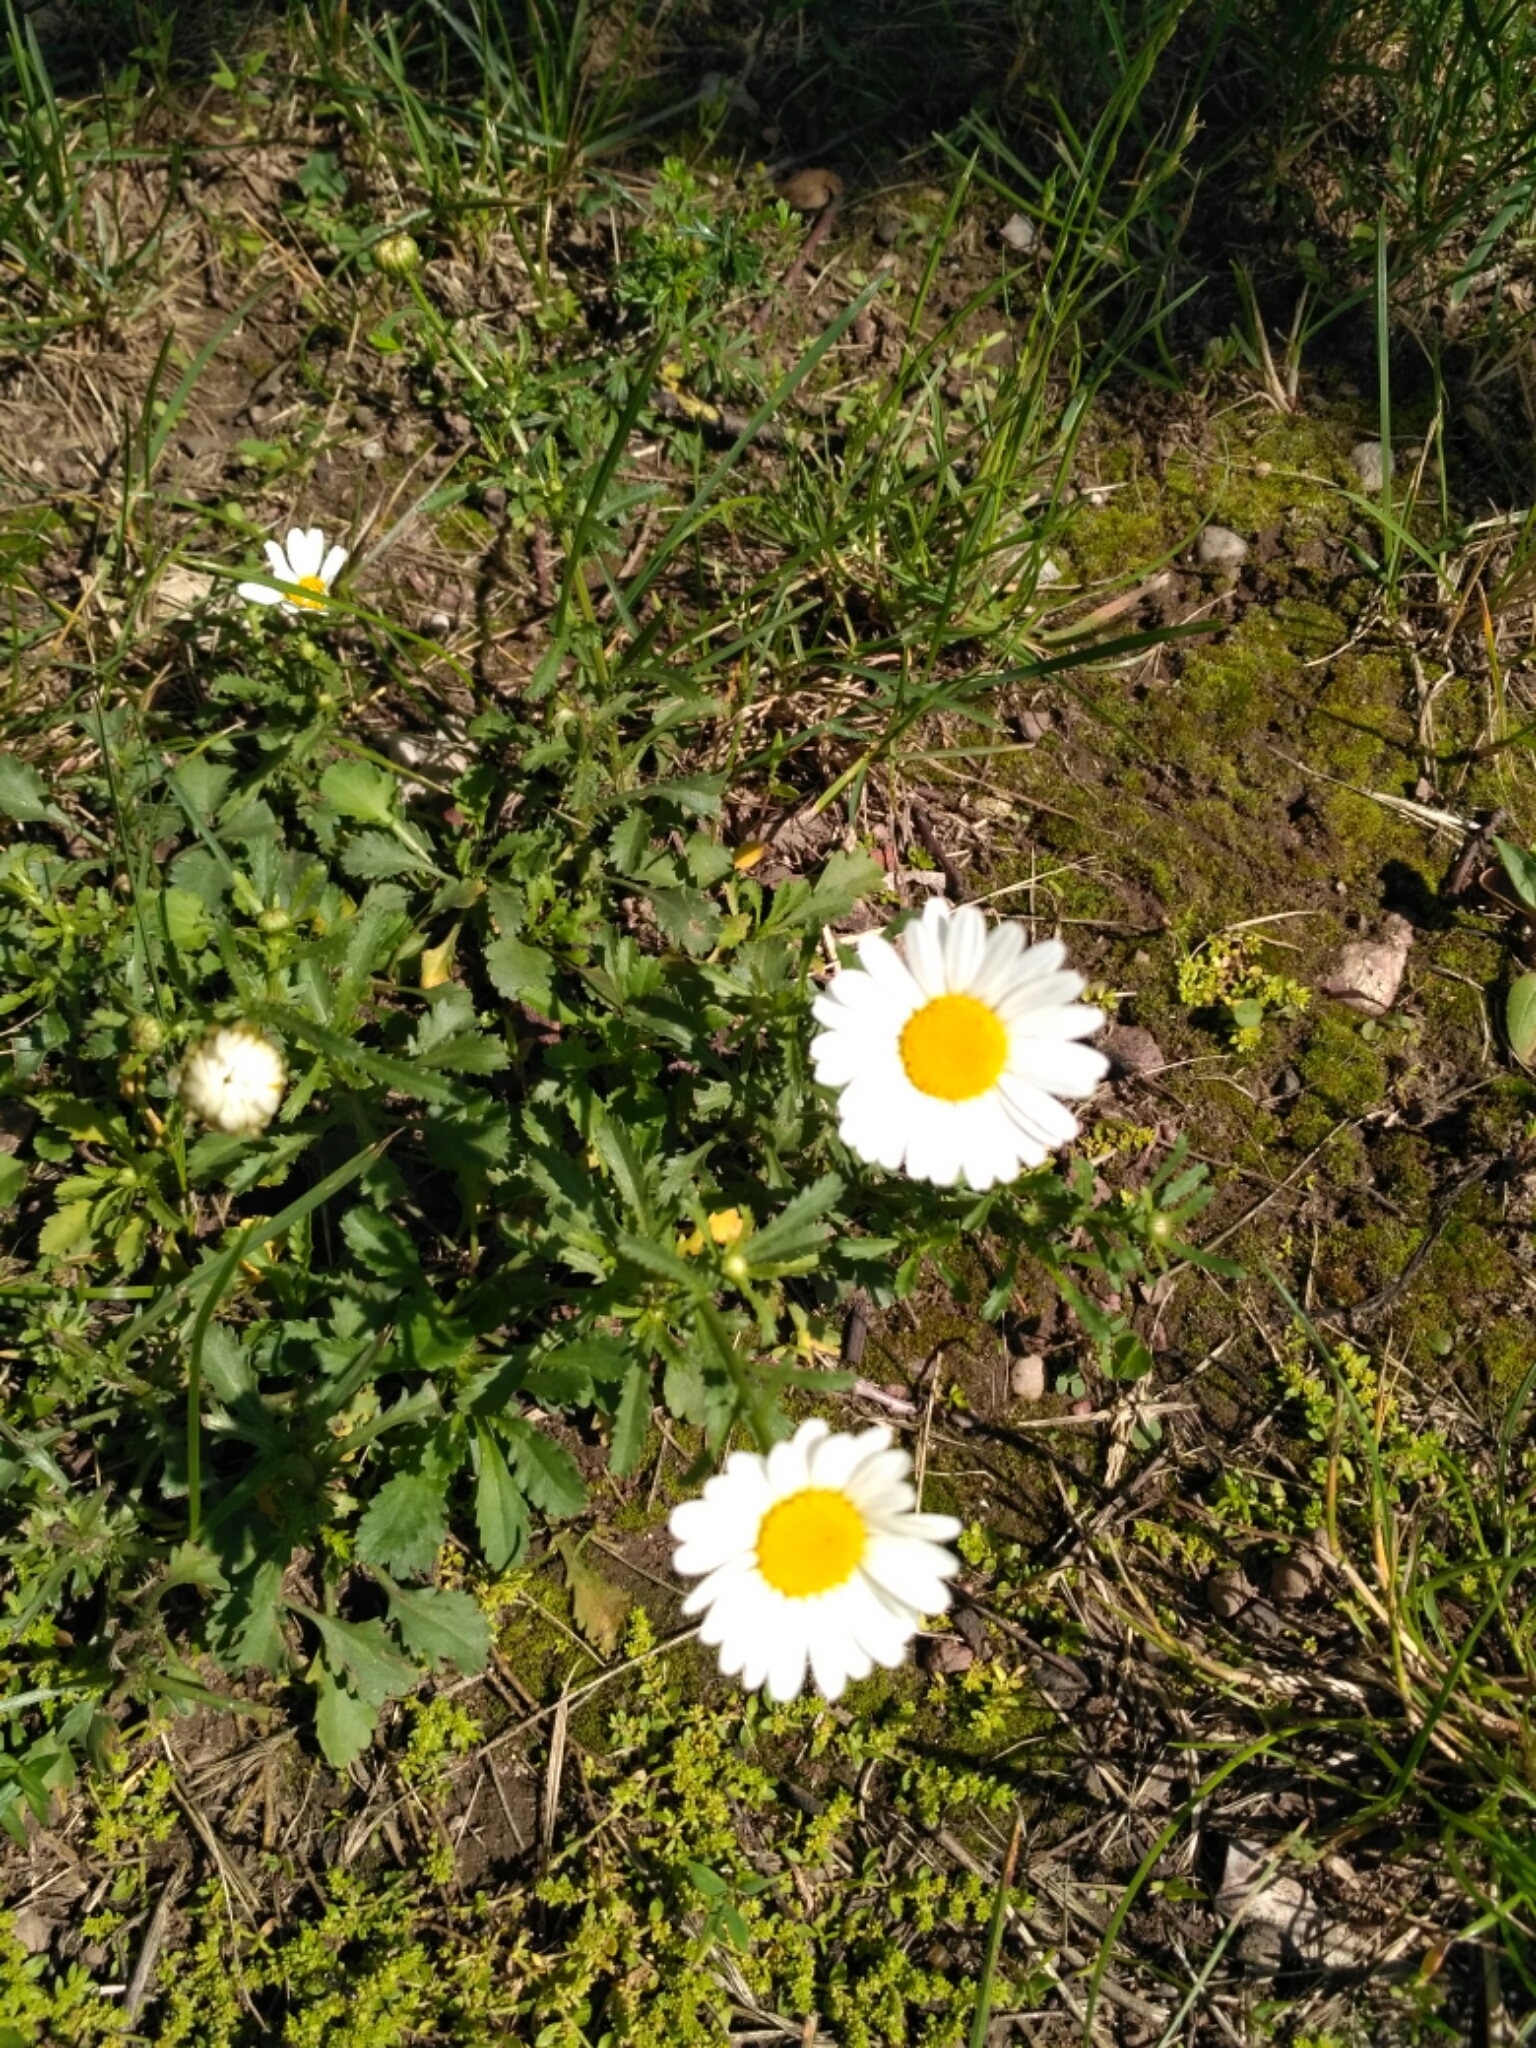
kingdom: Plantae
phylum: Tracheophyta
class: Magnoliopsida
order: Asterales
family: Asteraceae
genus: Leucanthemum
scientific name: Leucanthemum vulgare
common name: Oxeye daisy
